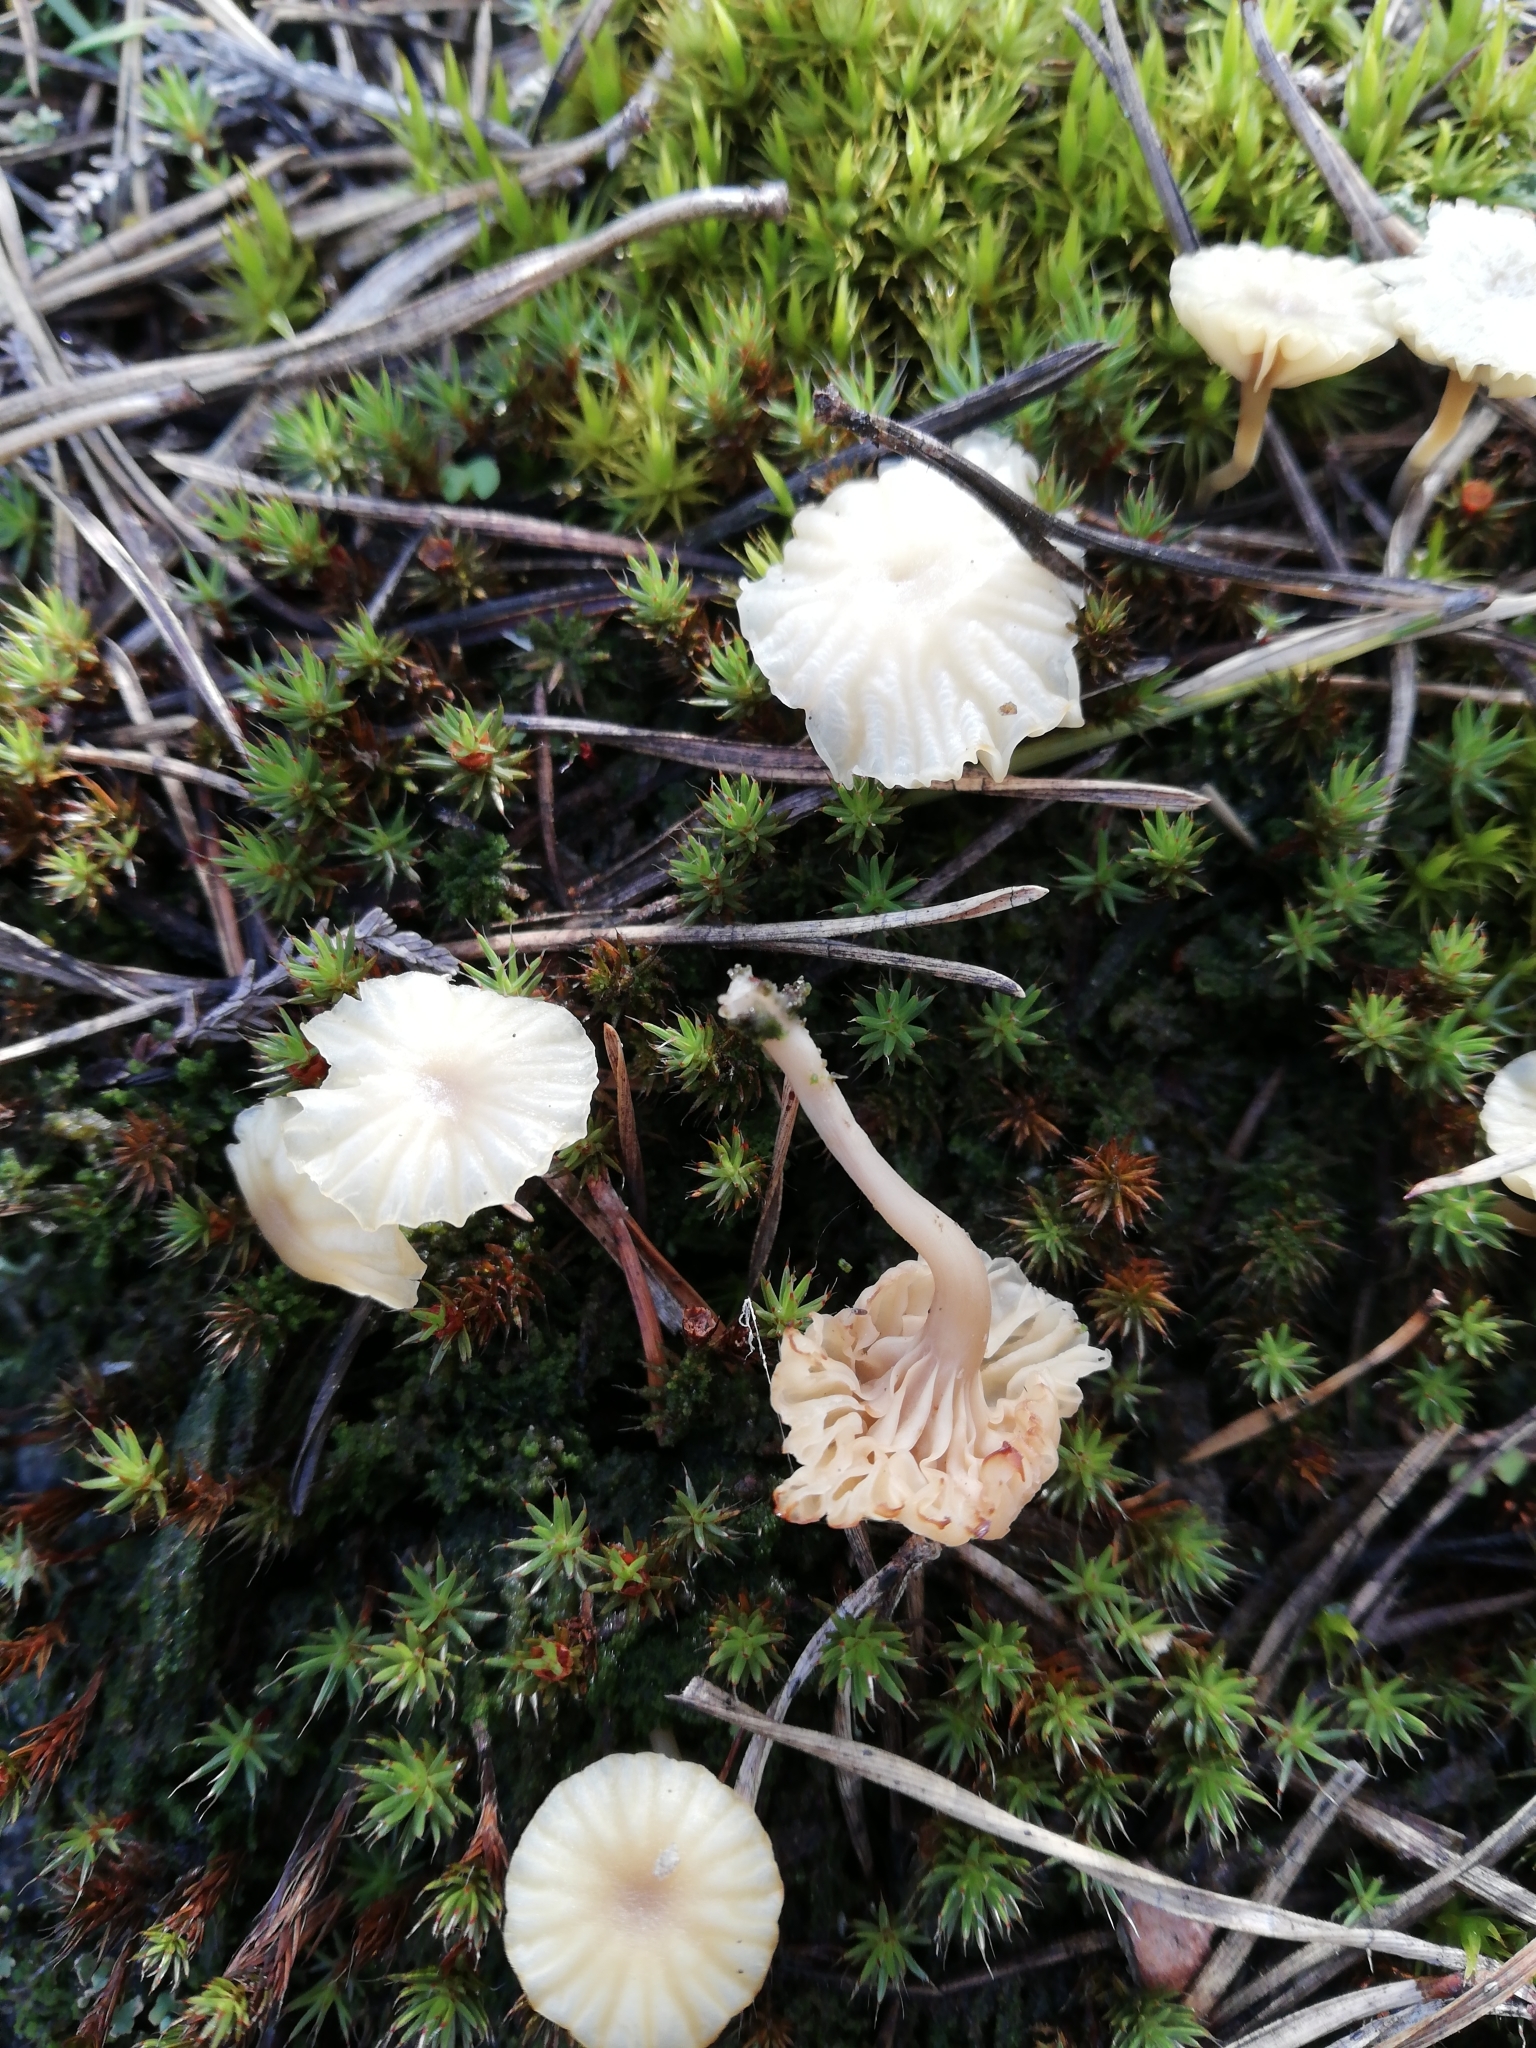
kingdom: Fungi
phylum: Basidiomycota
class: Agaricomycetes
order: Agaricales
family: Hygrophoraceae
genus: Lichenomphalia
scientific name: Lichenomphalia
